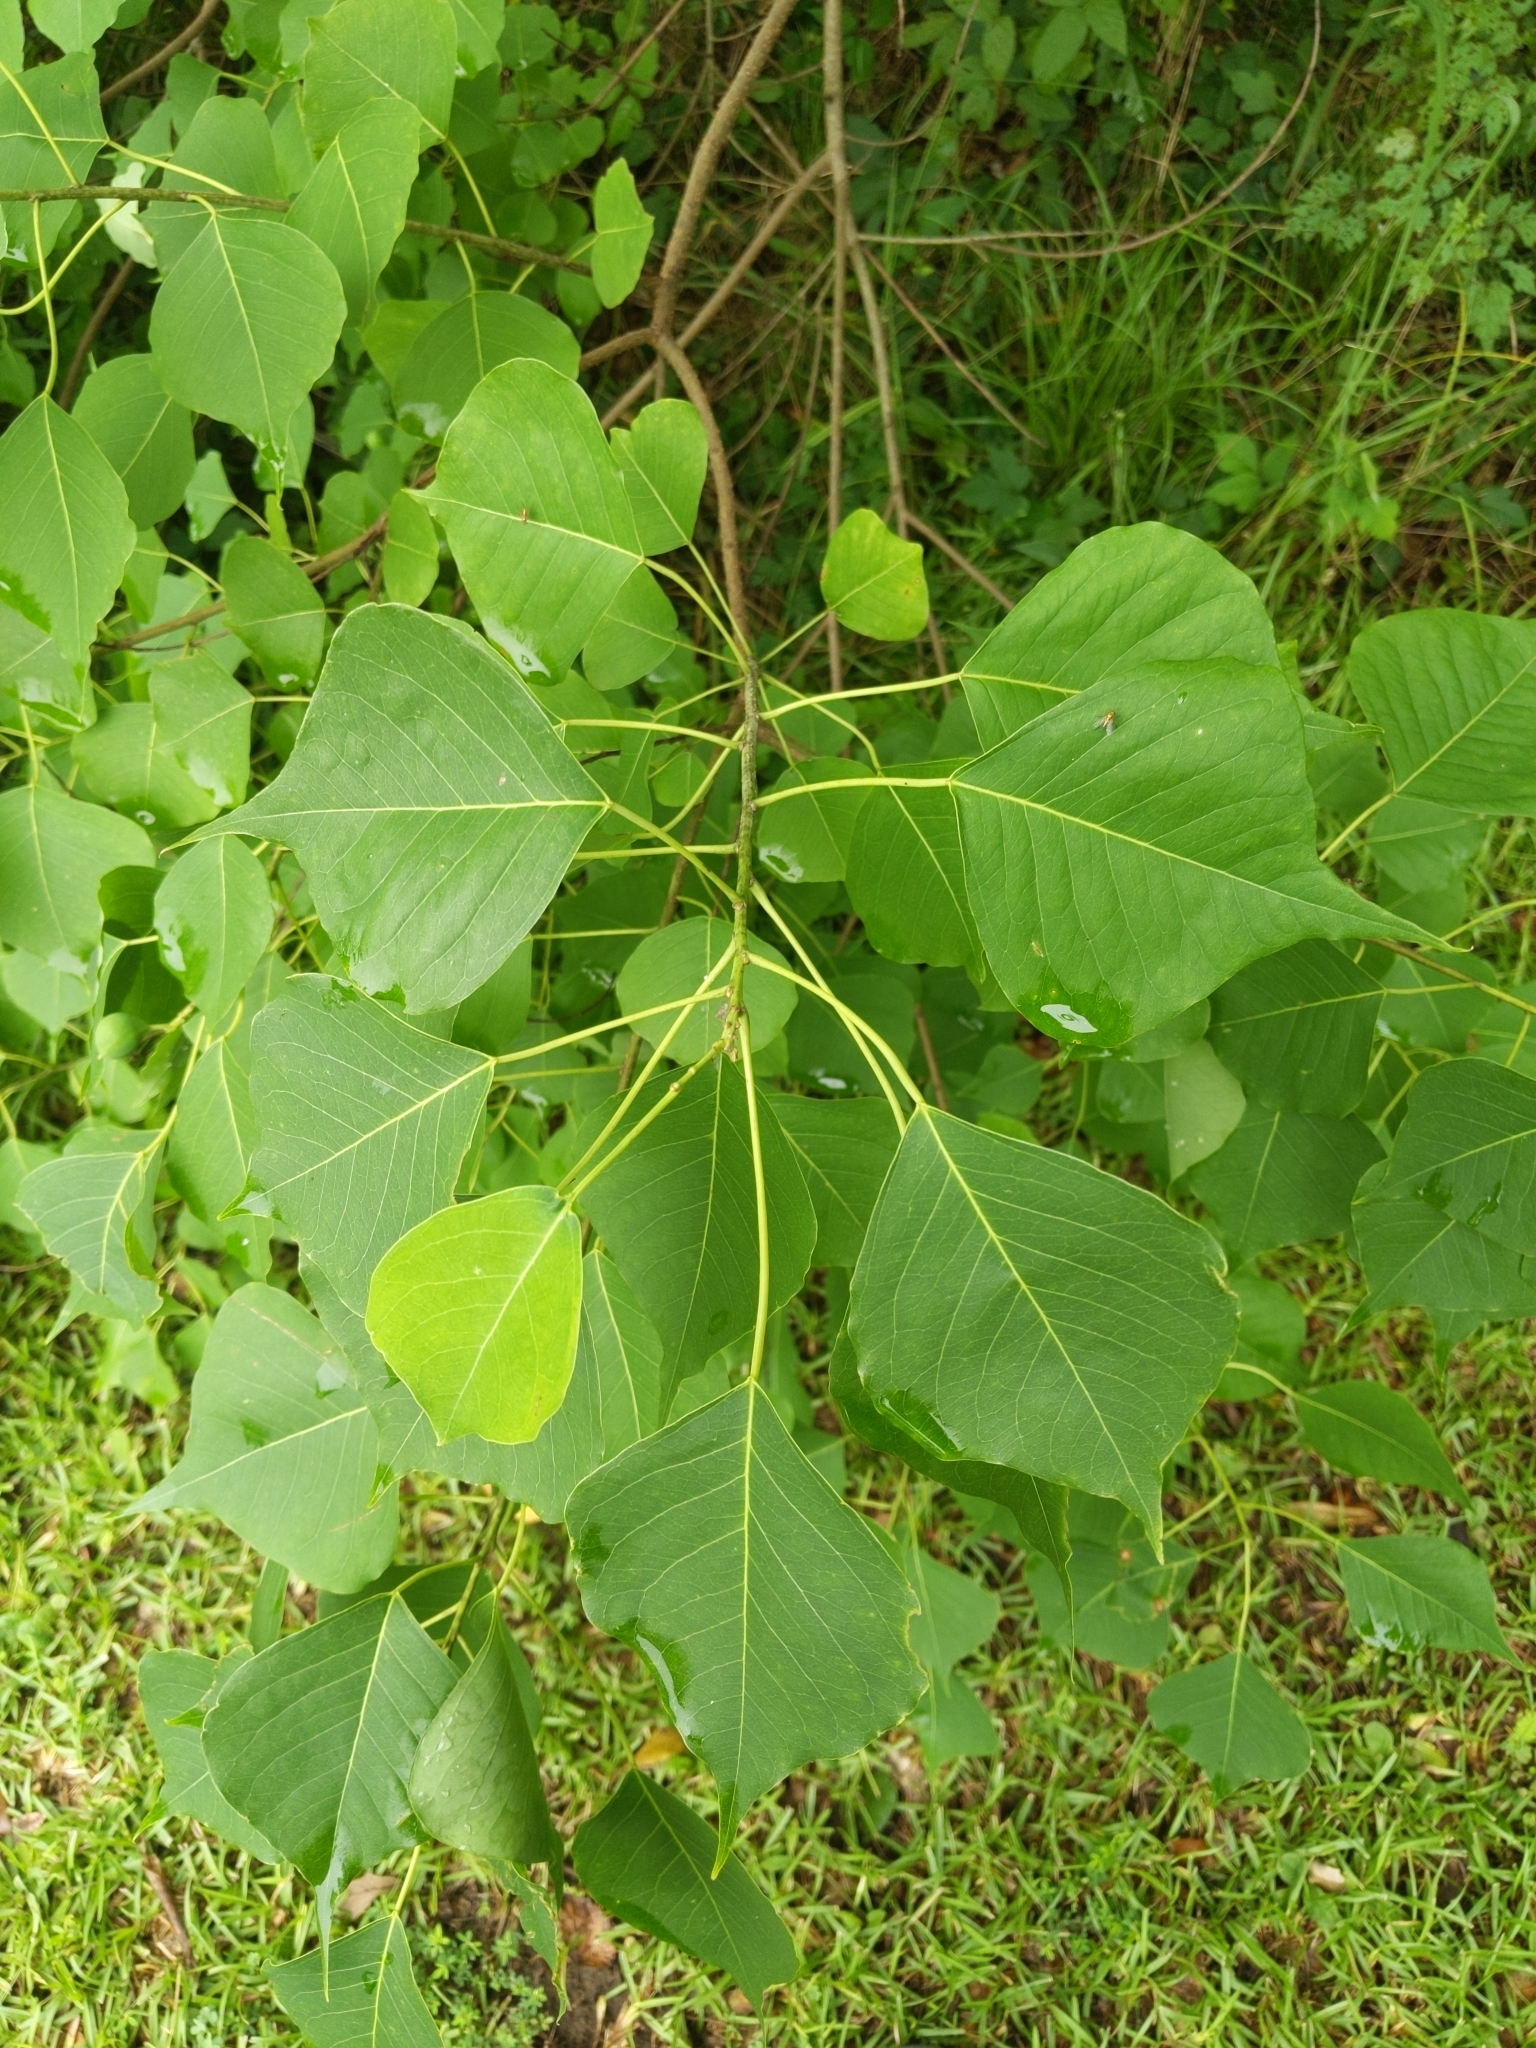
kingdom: Plantae
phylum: Tracheophyta
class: Magnoliopsida
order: Malpighiales
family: Euphorbiaceae
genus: Triadica
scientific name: Triadica sebifera
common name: Chinese tallow
